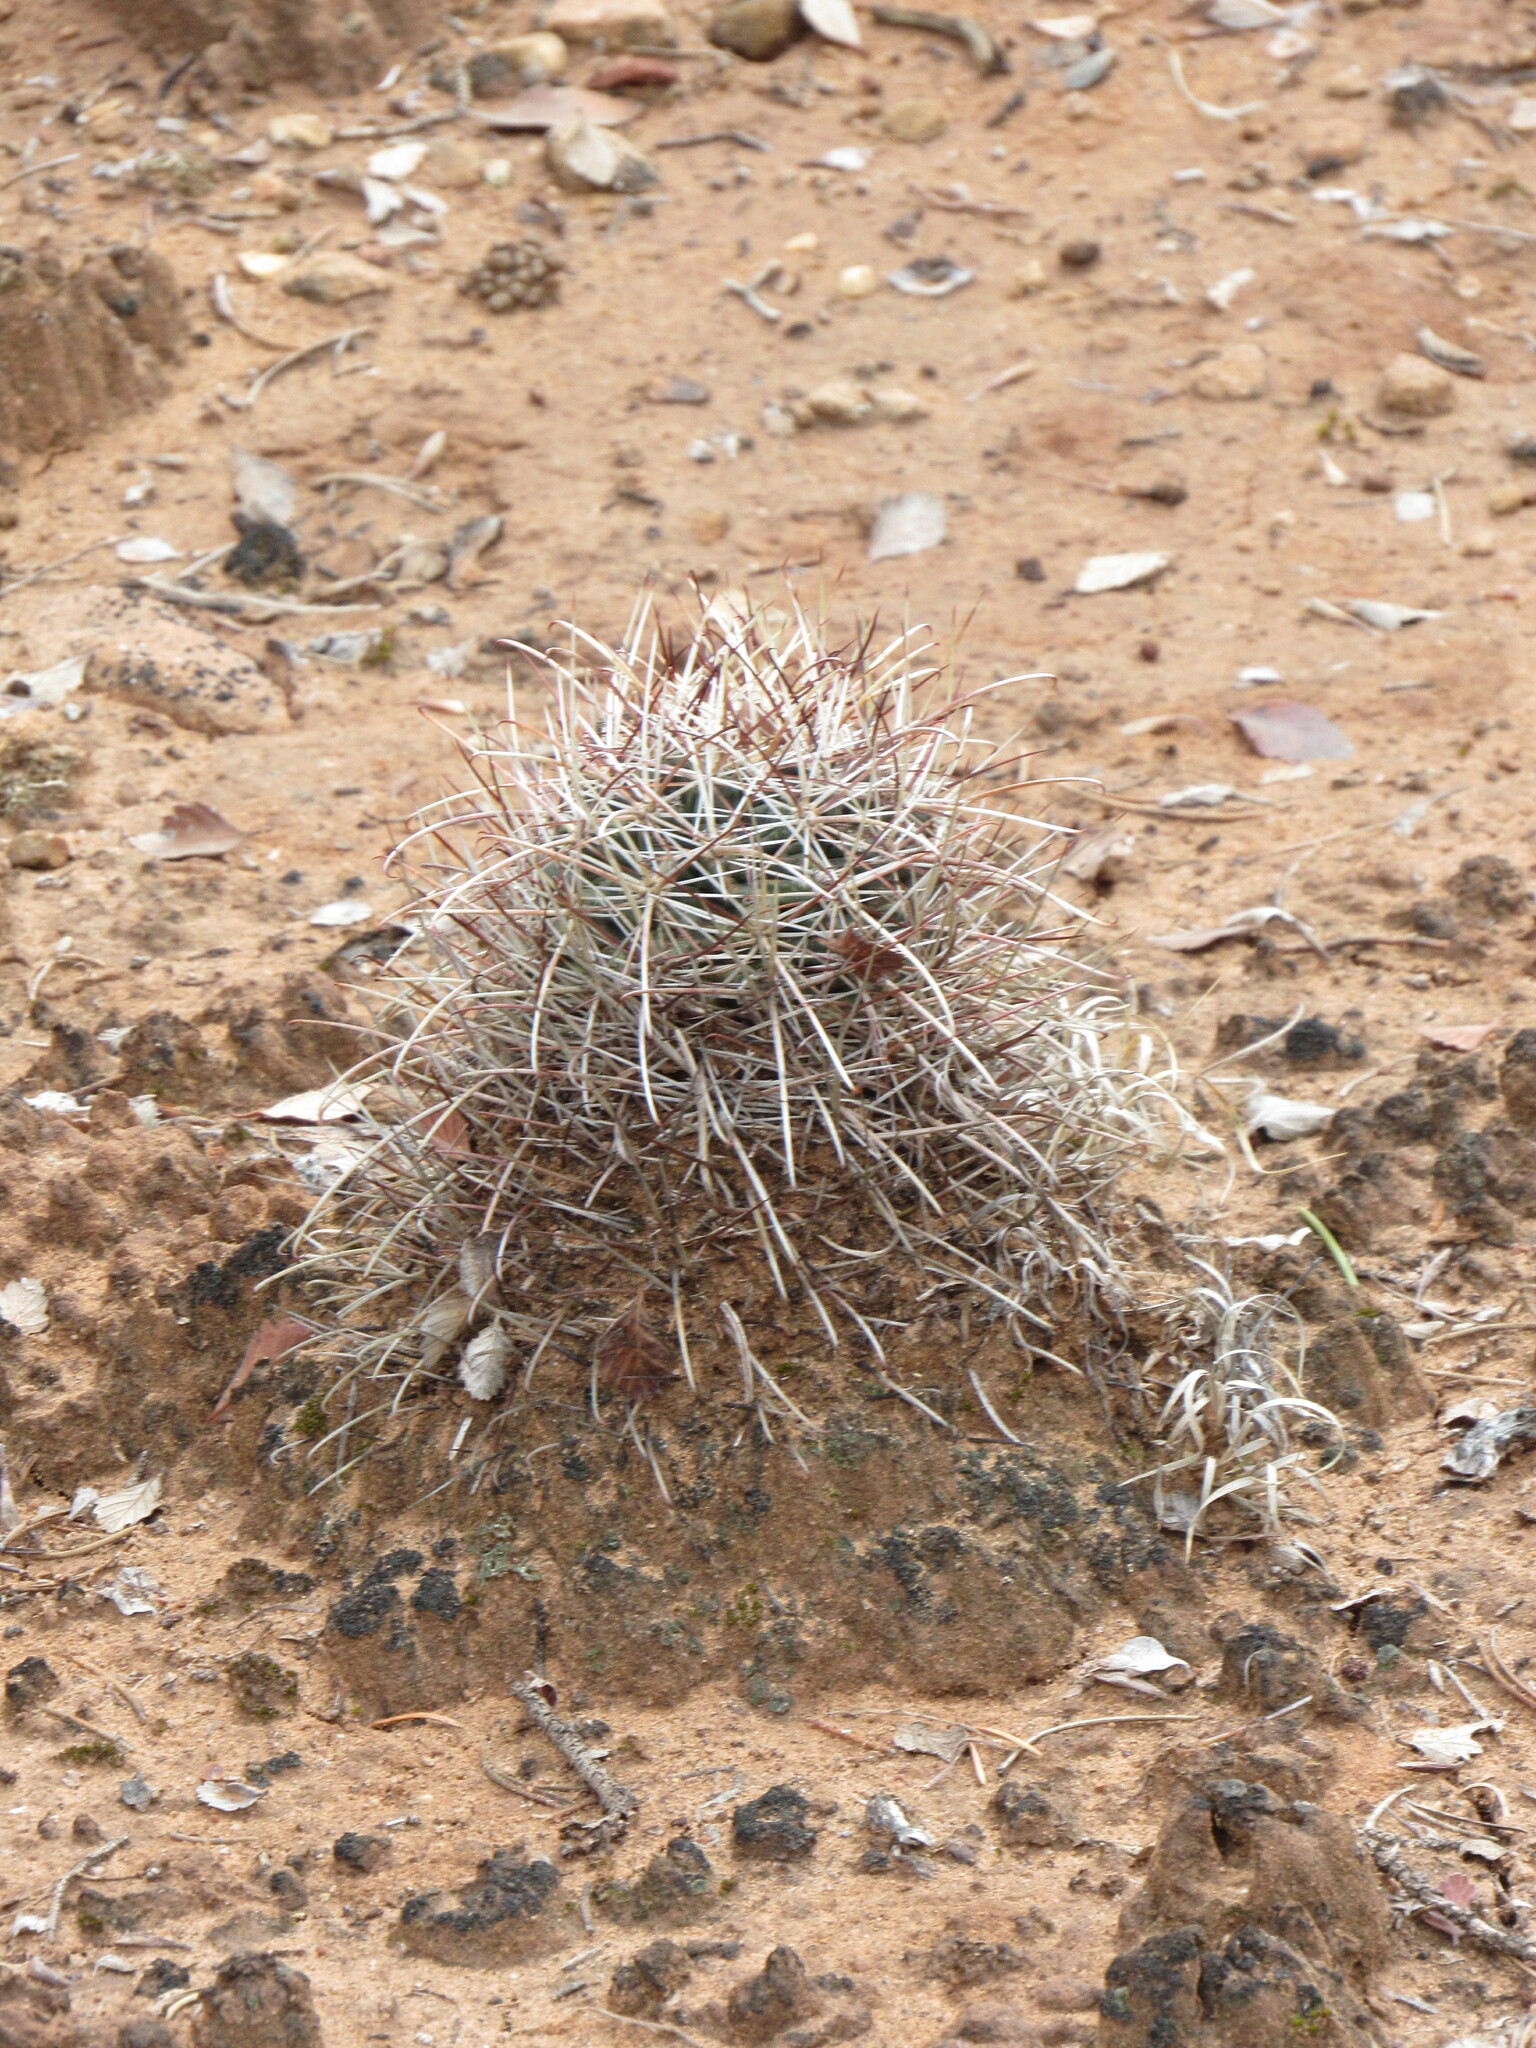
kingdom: Plantae
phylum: Tracheophyta
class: Magnoliopsida
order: Caryophyllales
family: Cactaceae
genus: Sclerocactus
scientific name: Sclerocactus parviflorus
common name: Small-flower fishhook cactus
